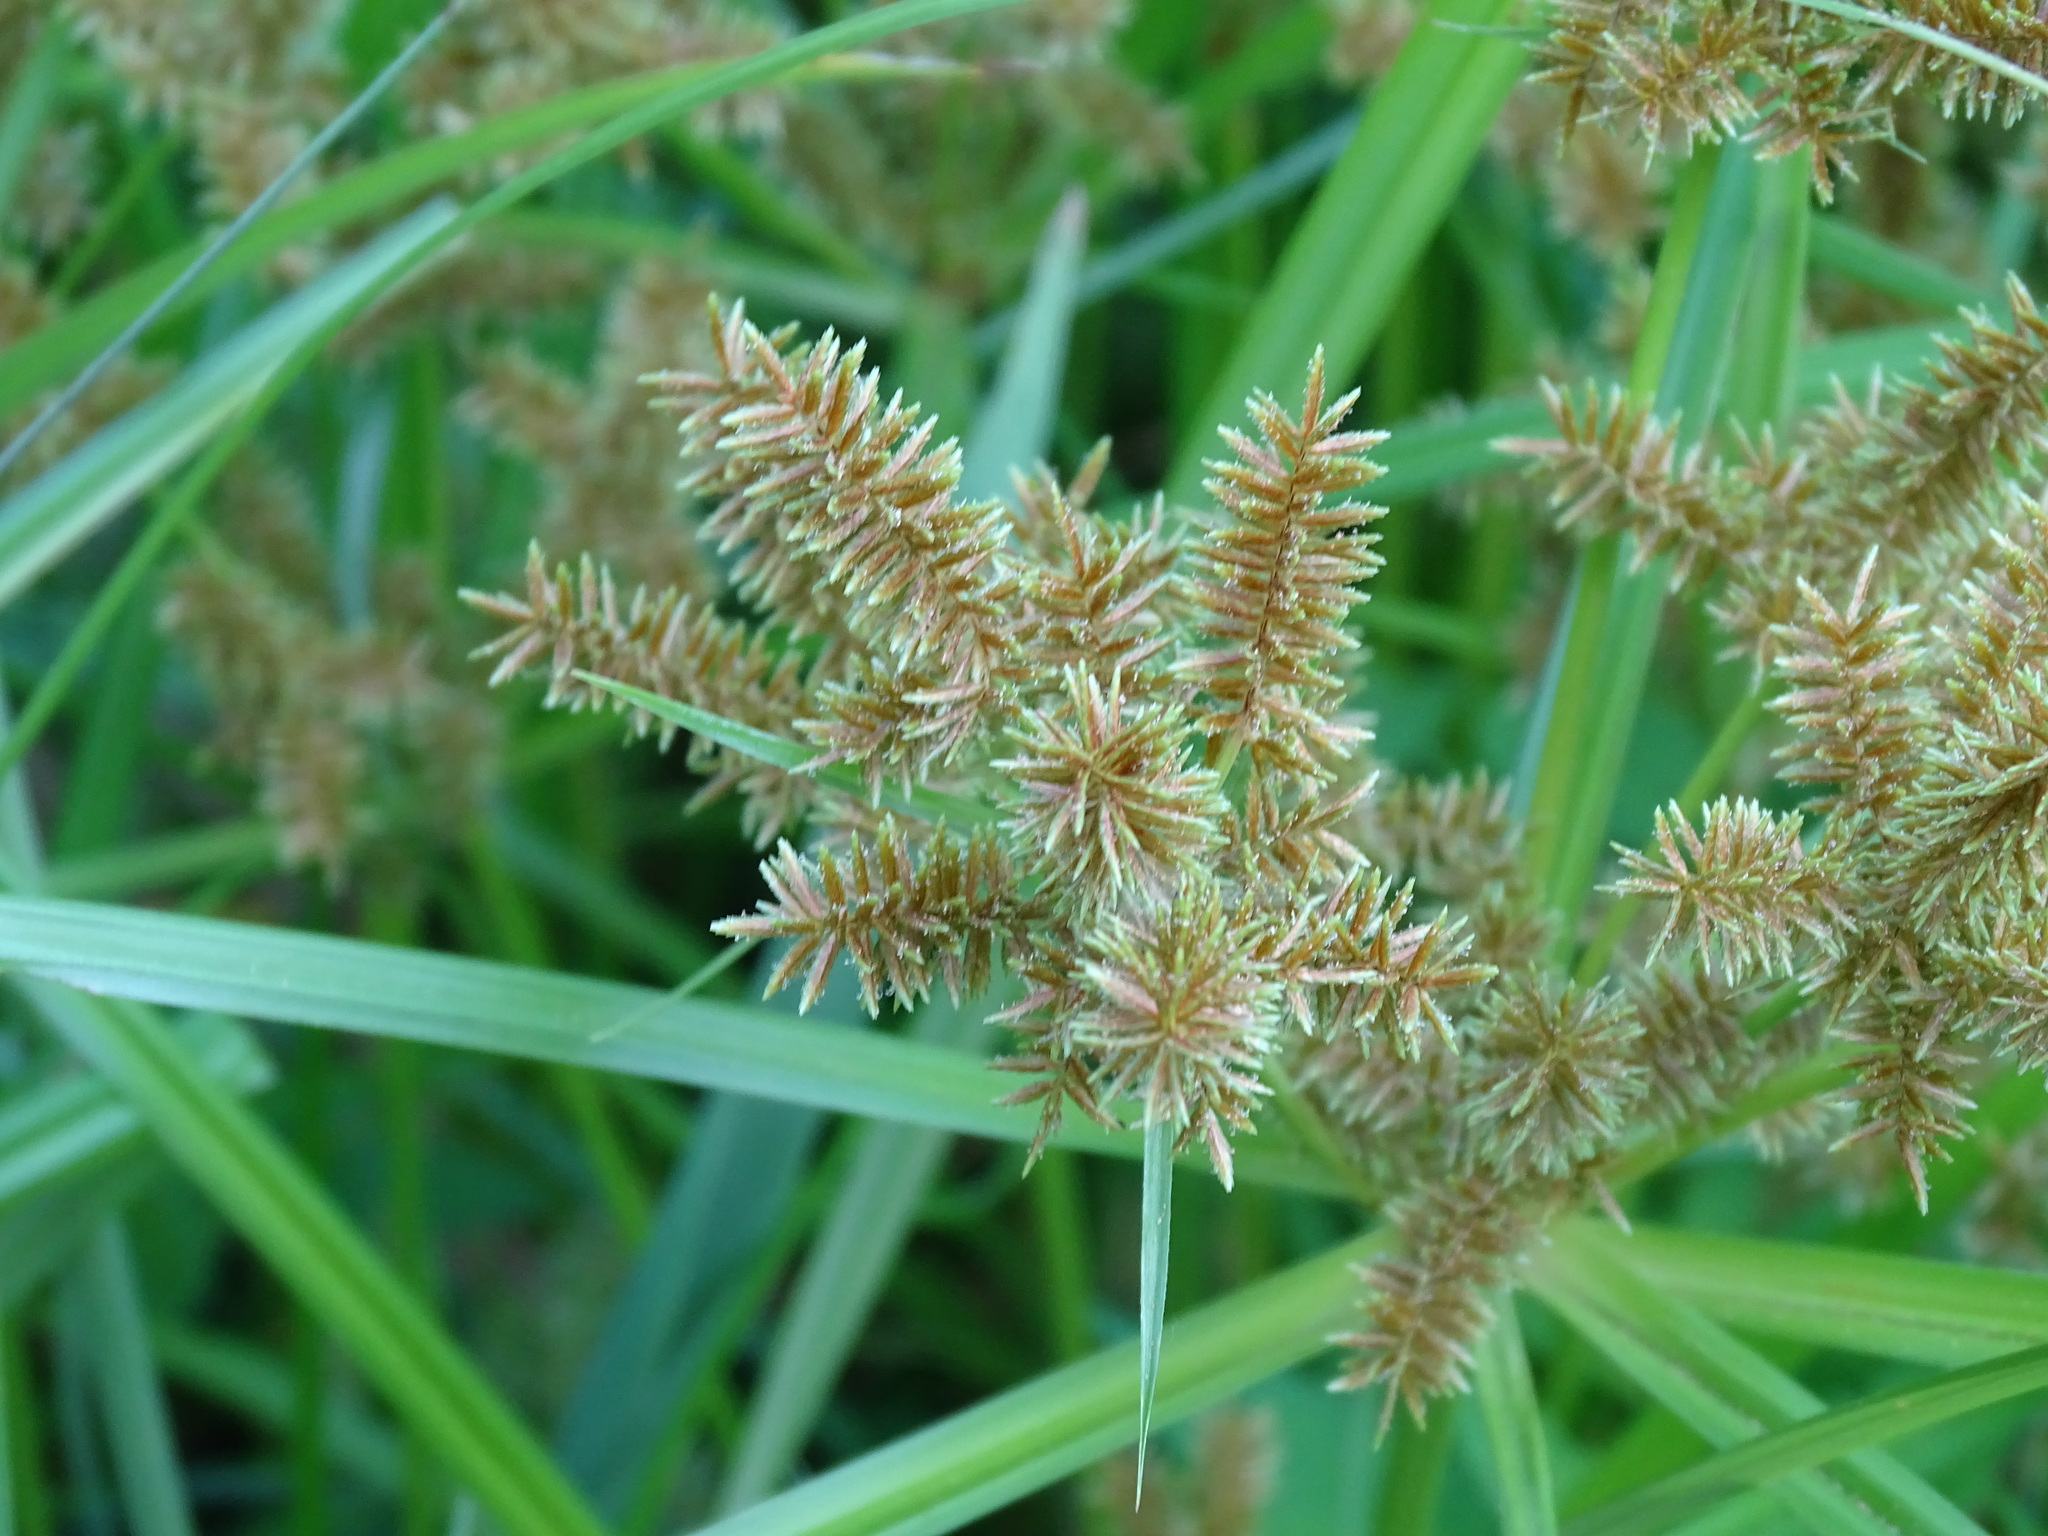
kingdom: Plantae
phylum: Tracheophyta
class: Liliopsida
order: Poales
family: Cyperaceae
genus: Cyperus
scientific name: Cyperus erythrorhizos
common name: Red-root flat sedge
